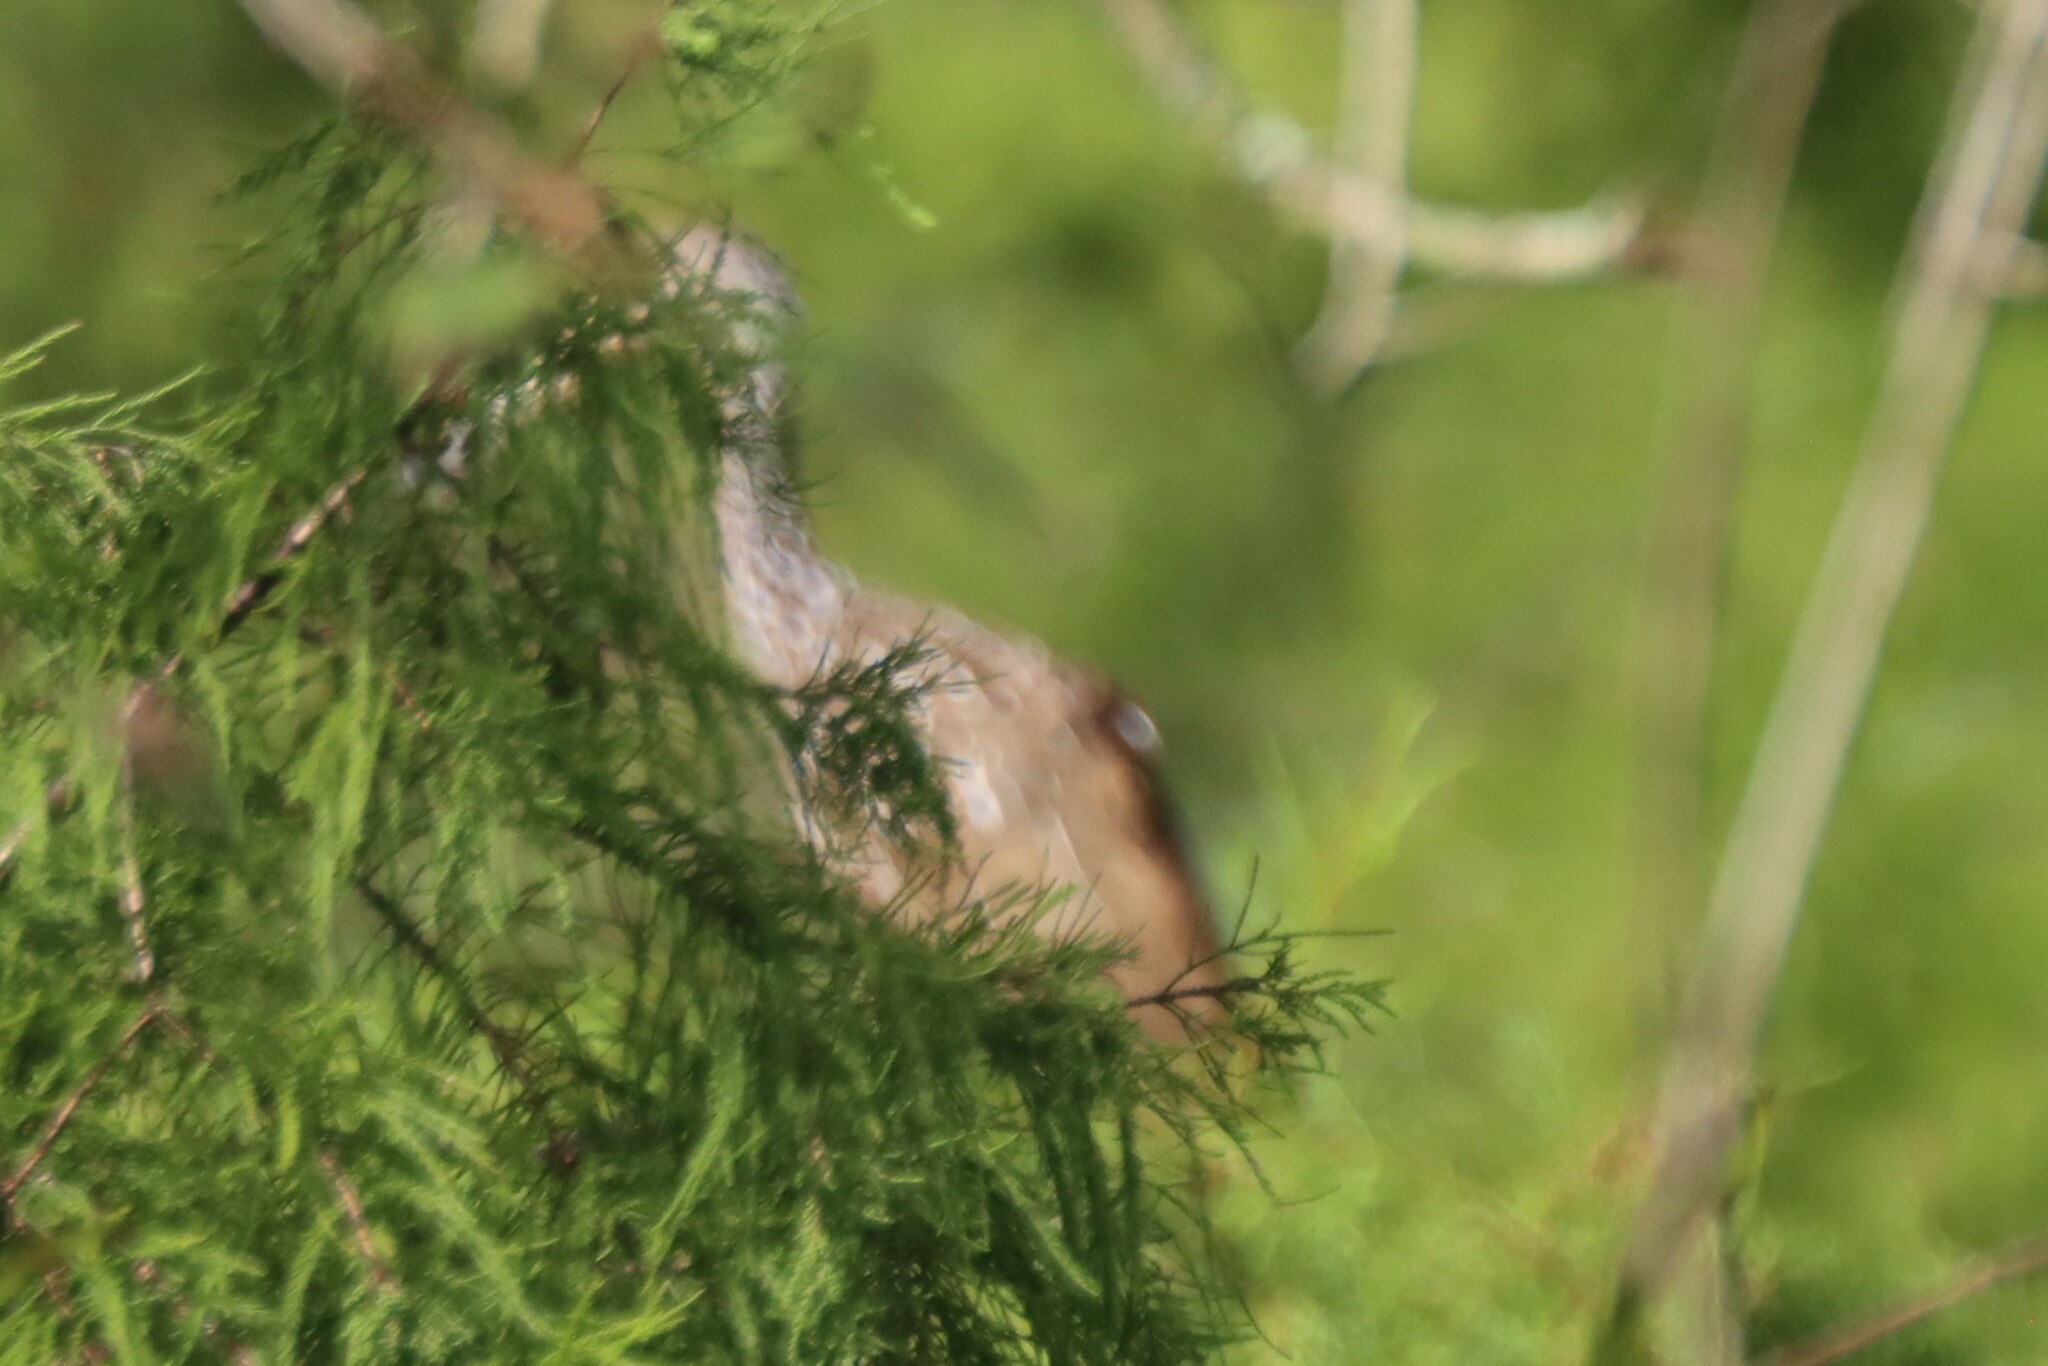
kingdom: Animalia
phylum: Chordata
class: Aves
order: Gruiformes
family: Aramidae
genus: Aramus
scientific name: Aramus guarauna
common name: Limpkin
